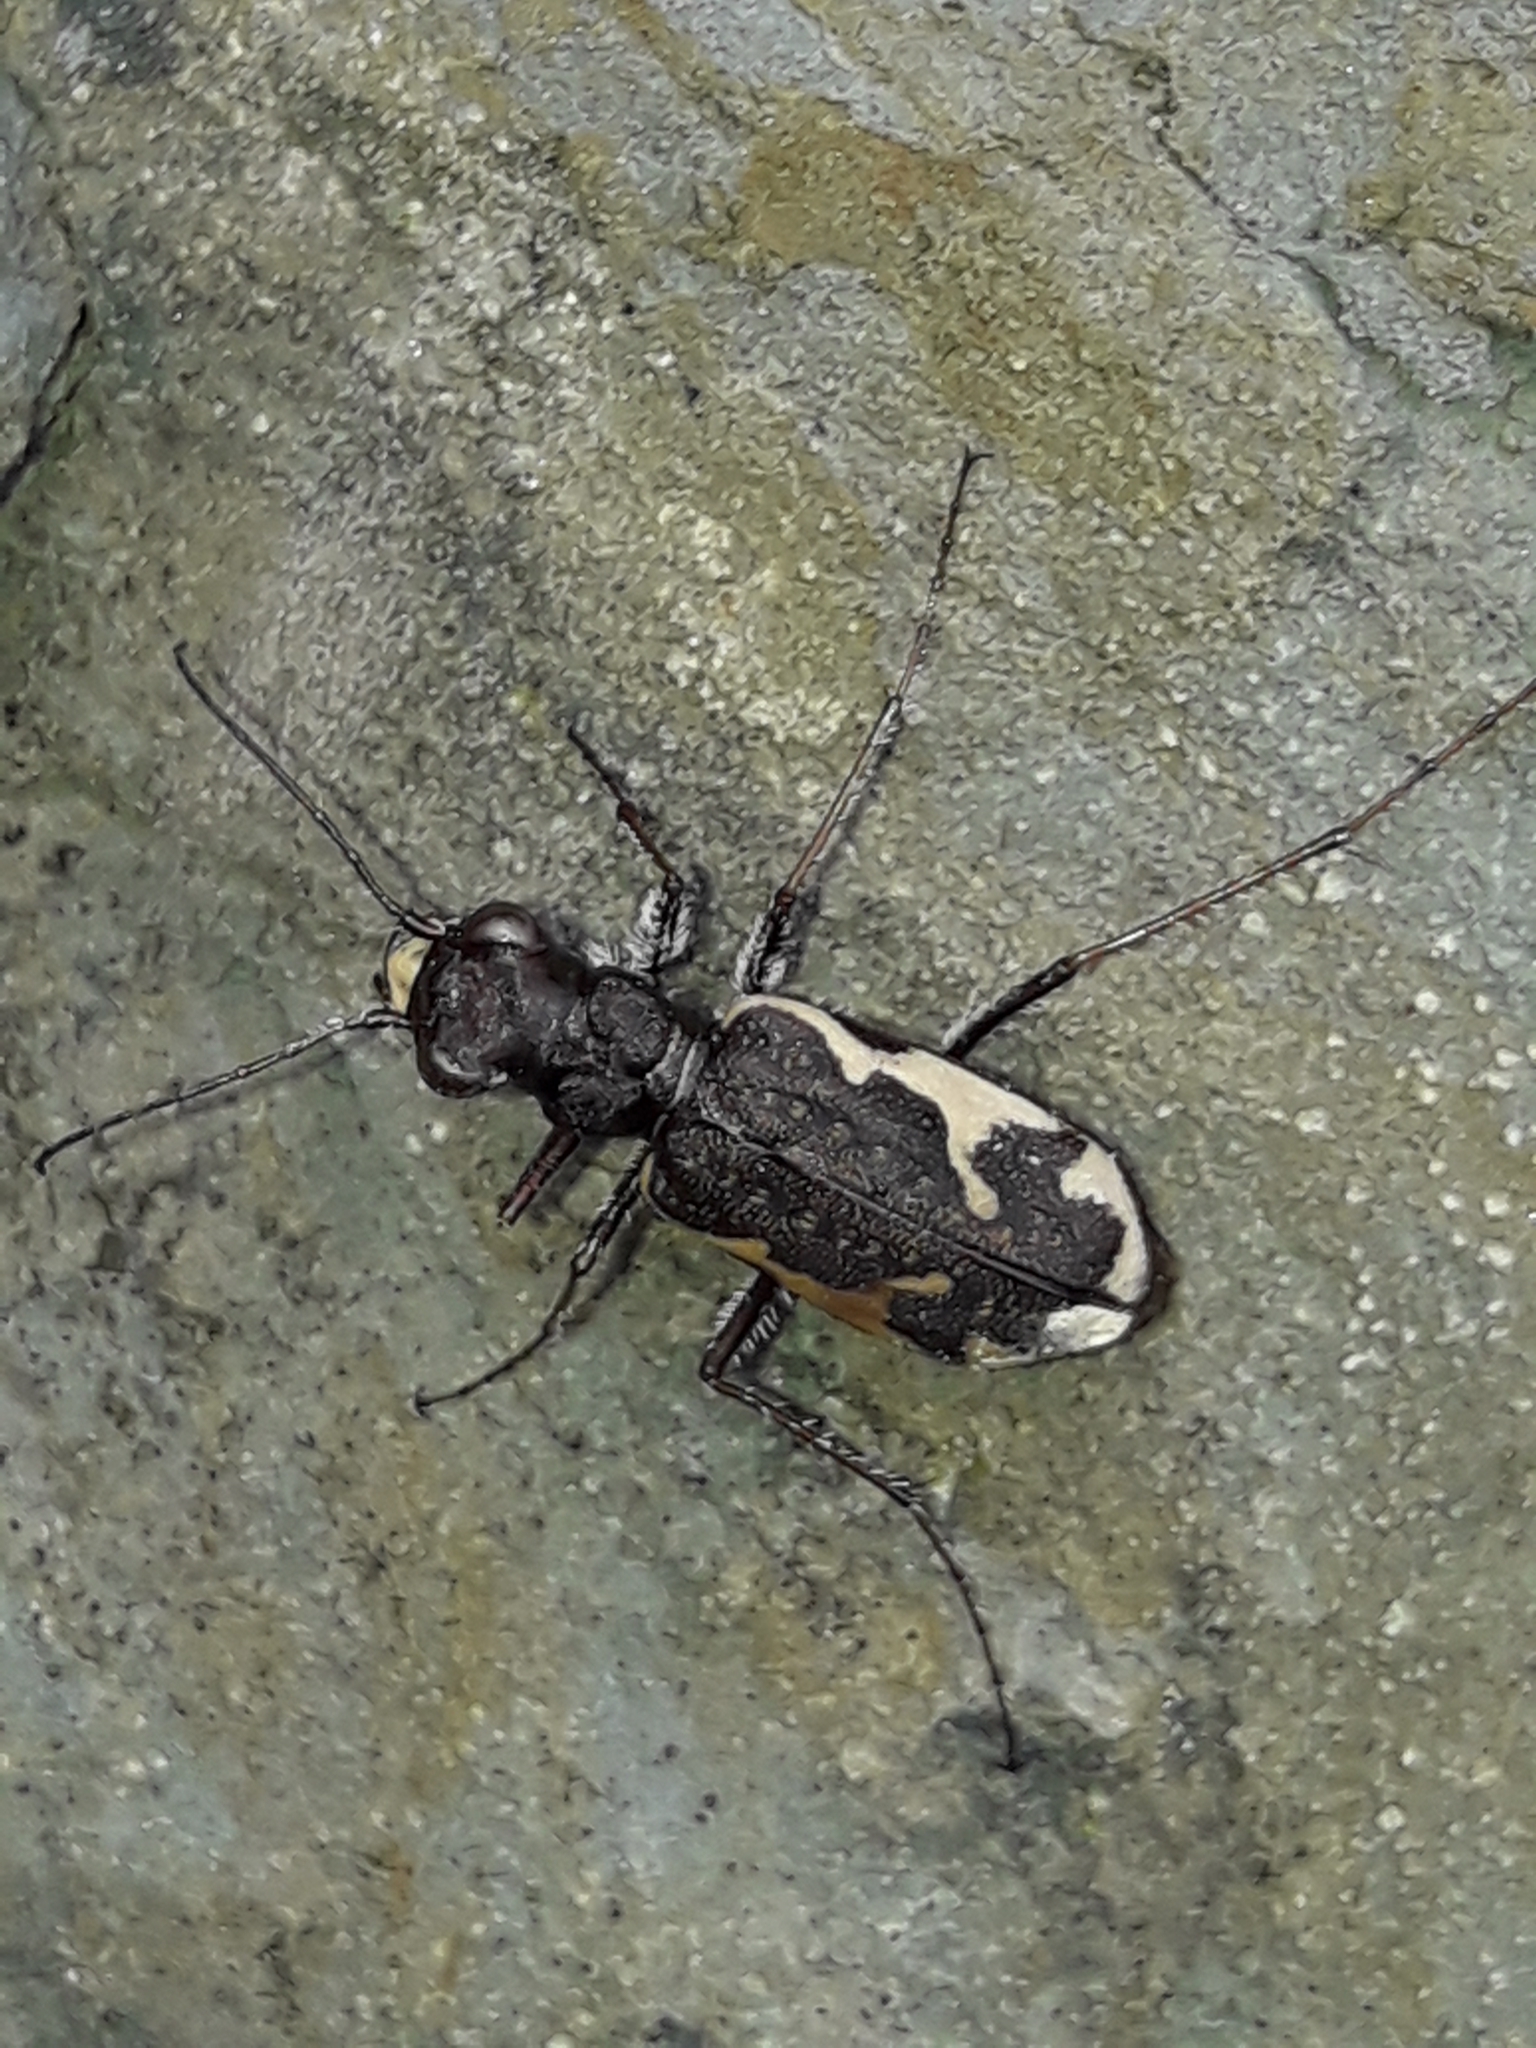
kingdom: Animalia
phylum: Arthropoda
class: Insecta
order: Coleoptera
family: Carabidae
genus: Neocicindela
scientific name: Neocicindela tuberculata
